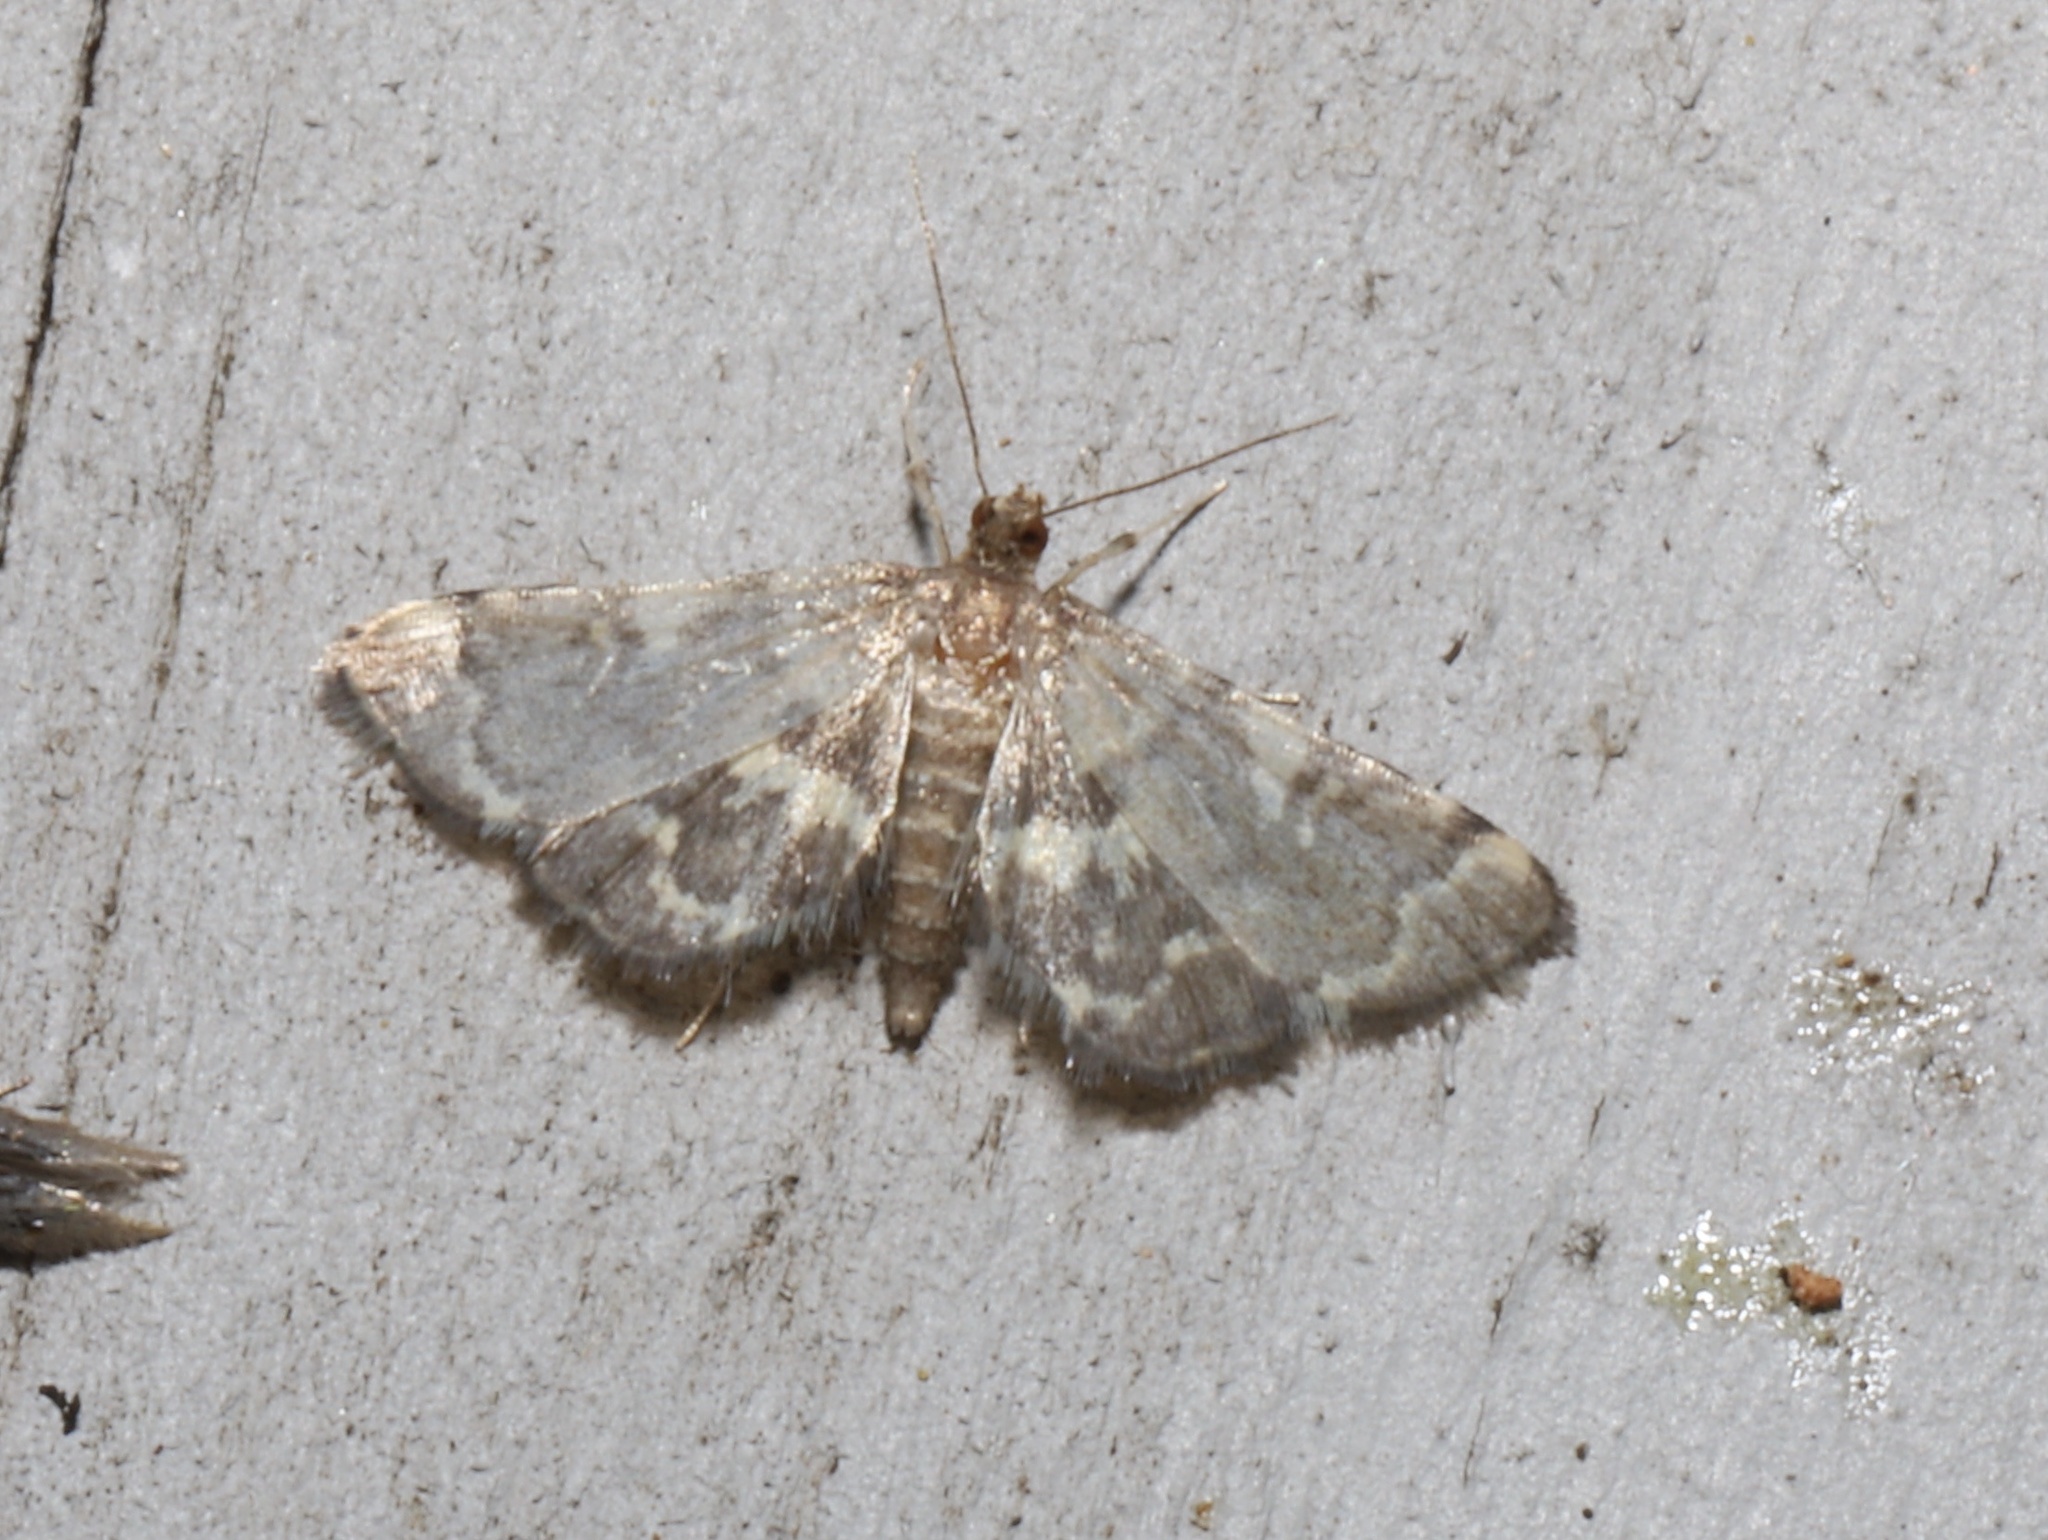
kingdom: Animalia
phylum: Arthropoda
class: Insecta
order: Lepidoptera
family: Crambidae
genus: Anageshna
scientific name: Anageshna primordialis
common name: Yellow-spotted webworm moth
